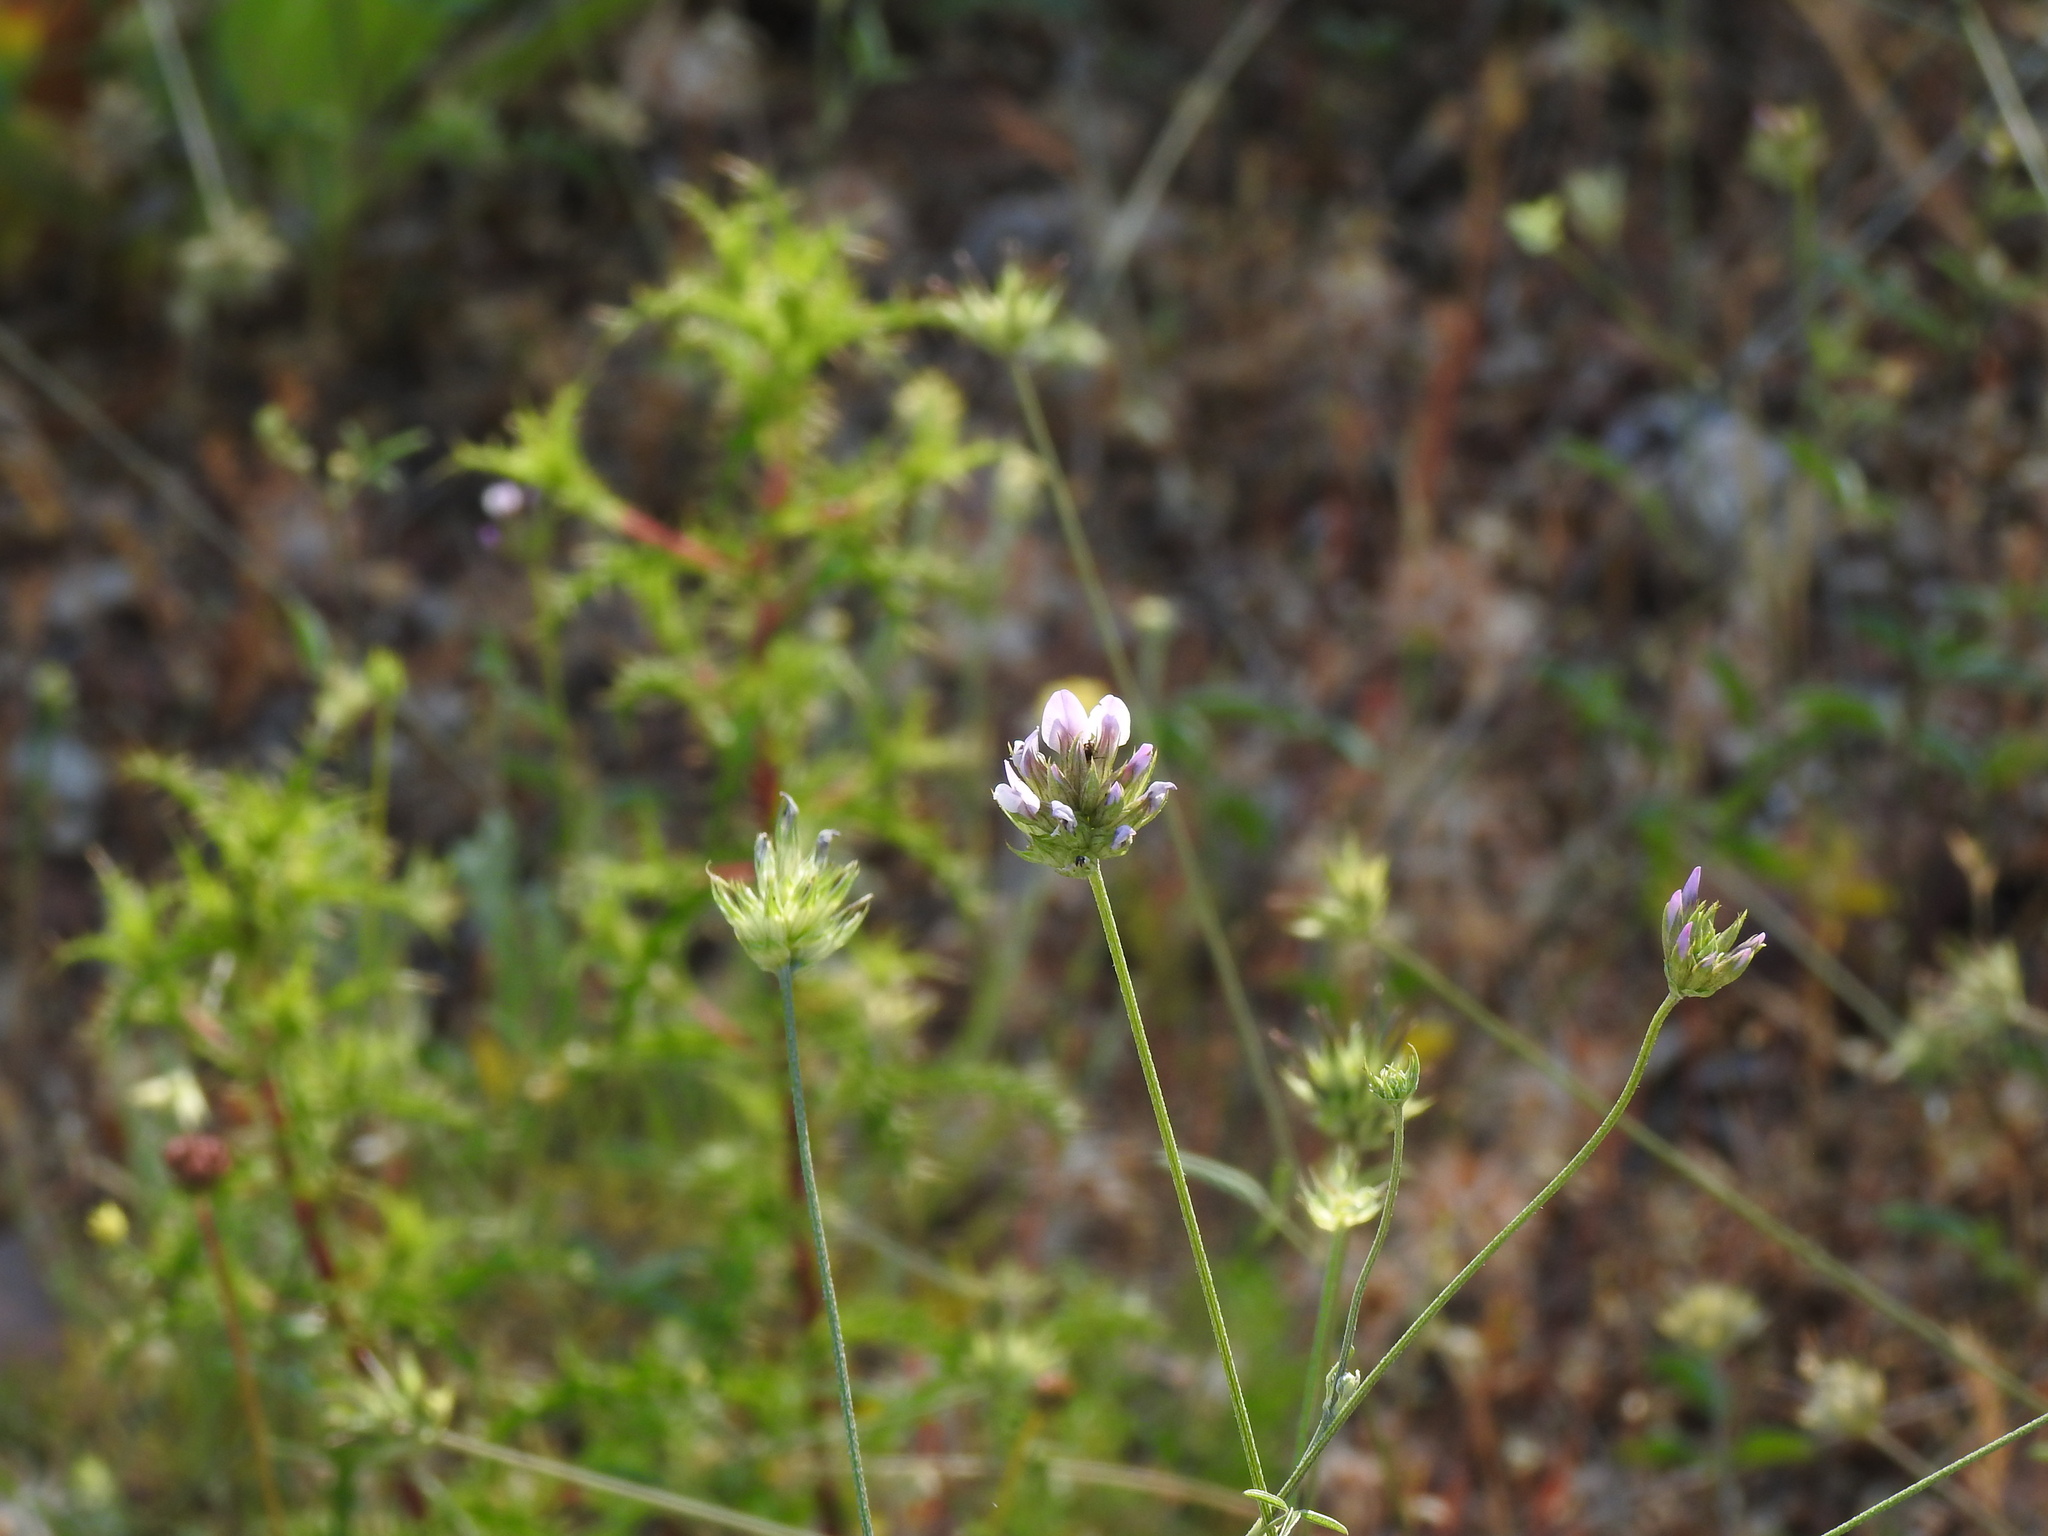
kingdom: Plantae
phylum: Tracheophyta
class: Magnoliopsida
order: Fabales
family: Fabaceae
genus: Bituminaria
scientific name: Bituminaria bituminosa
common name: Arabian pea
